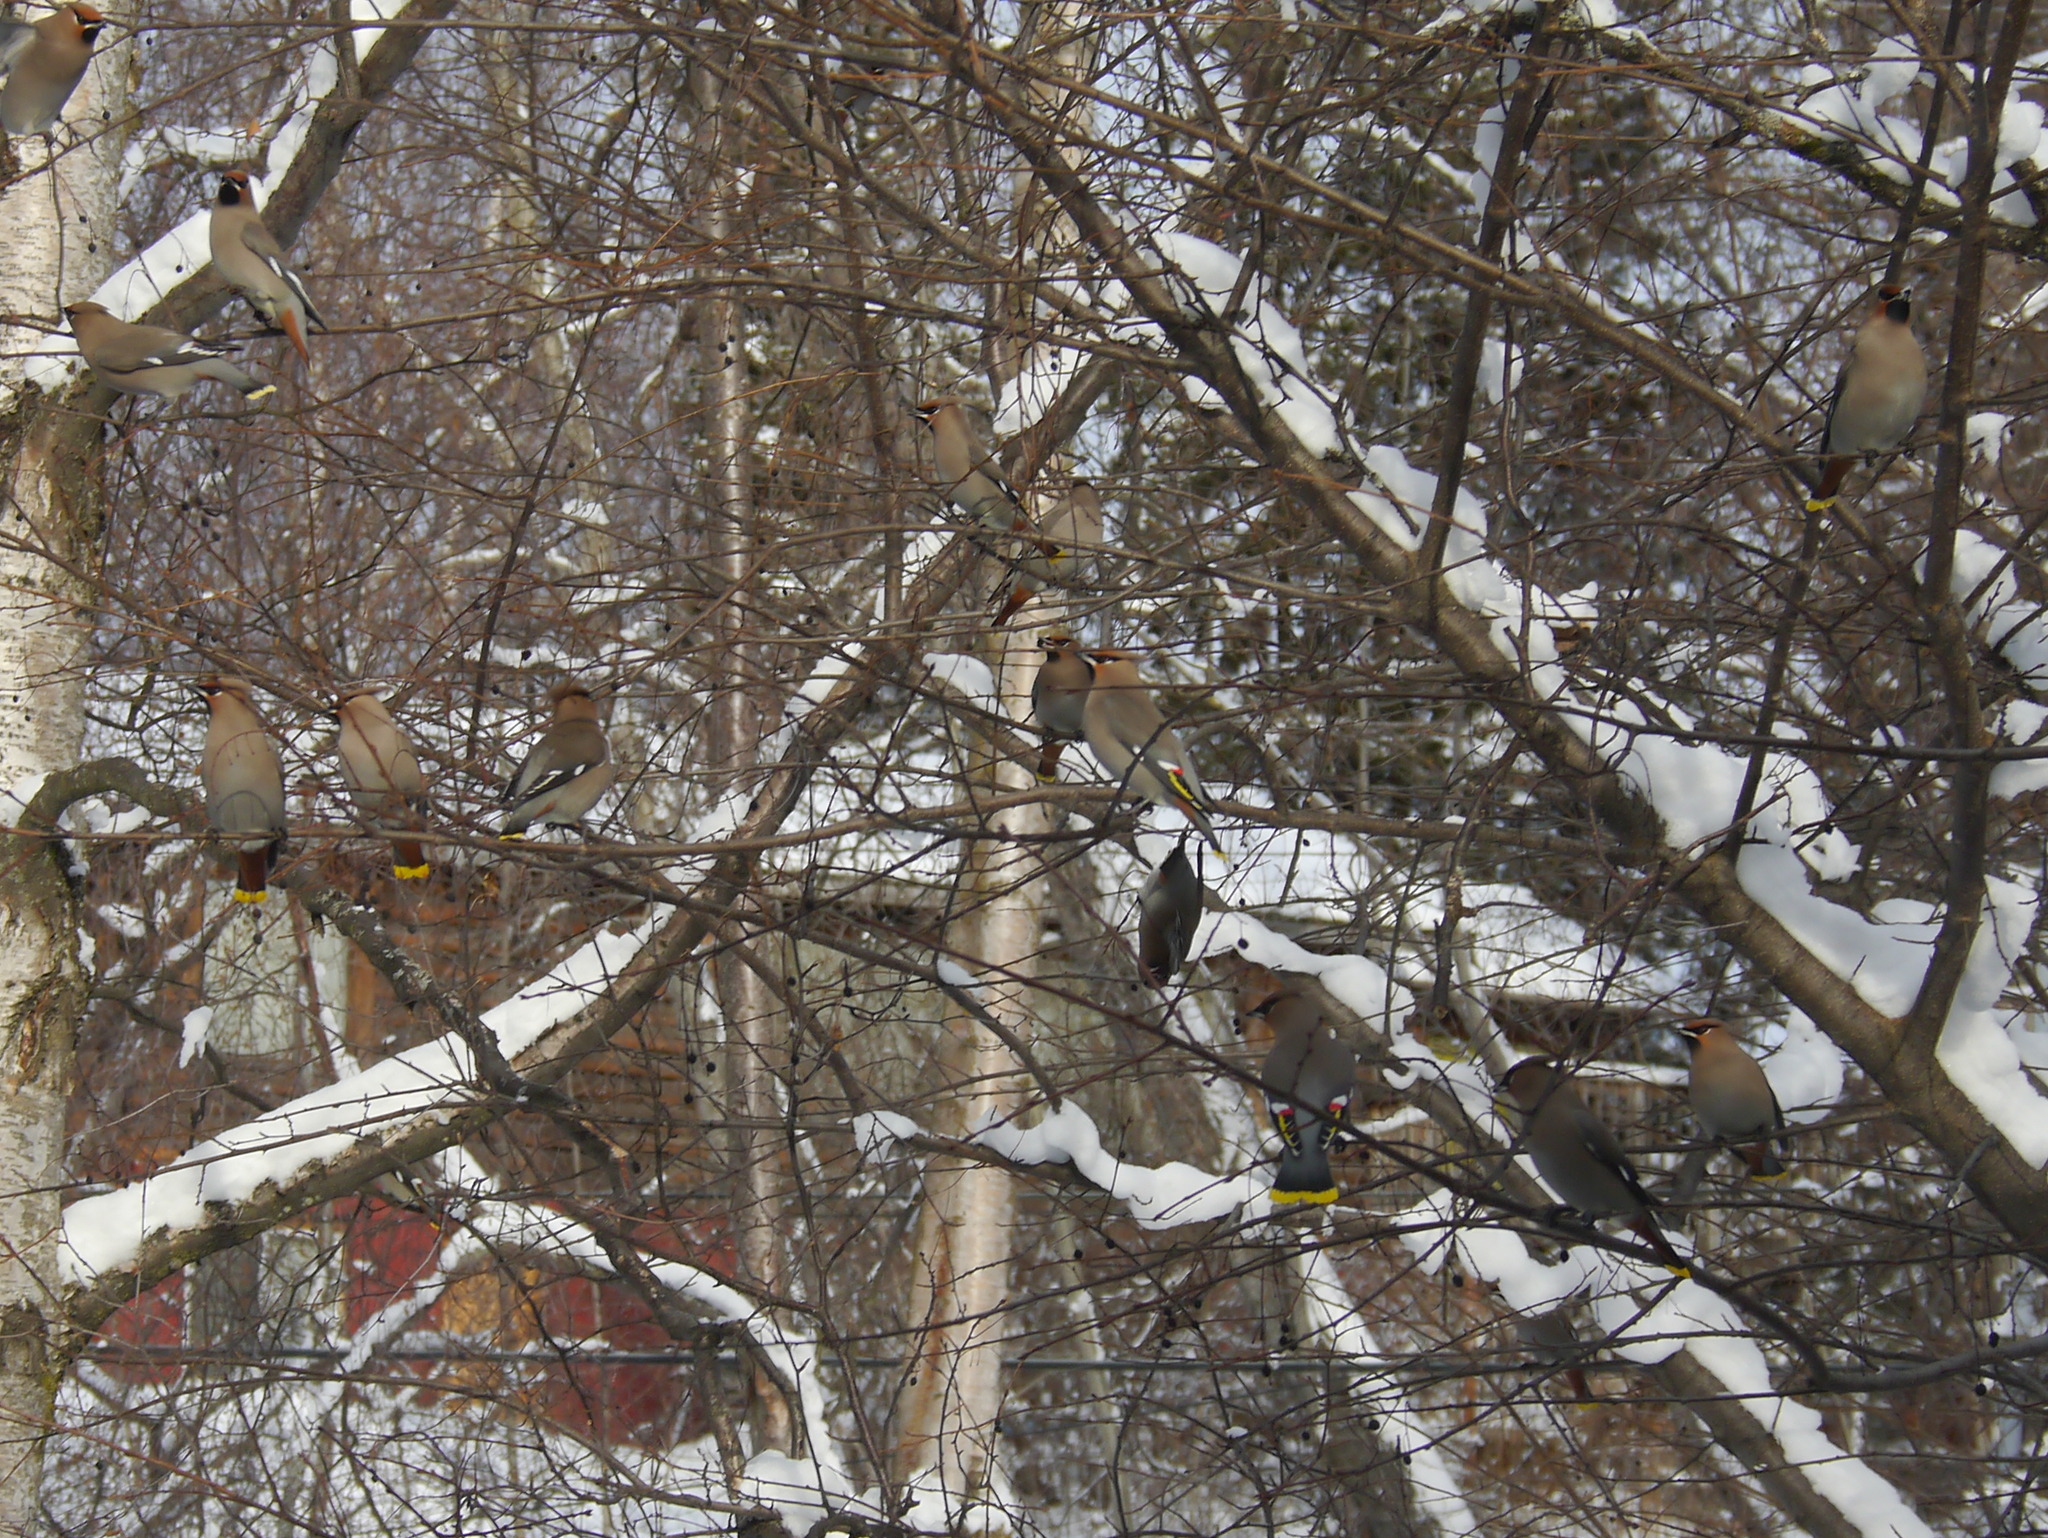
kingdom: Animalia
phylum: Chordata
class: Aves
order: Passeriformes
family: Bombycillidae
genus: Bombycilla
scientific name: Bombycilla garrulus
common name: Bohemian waxwing
